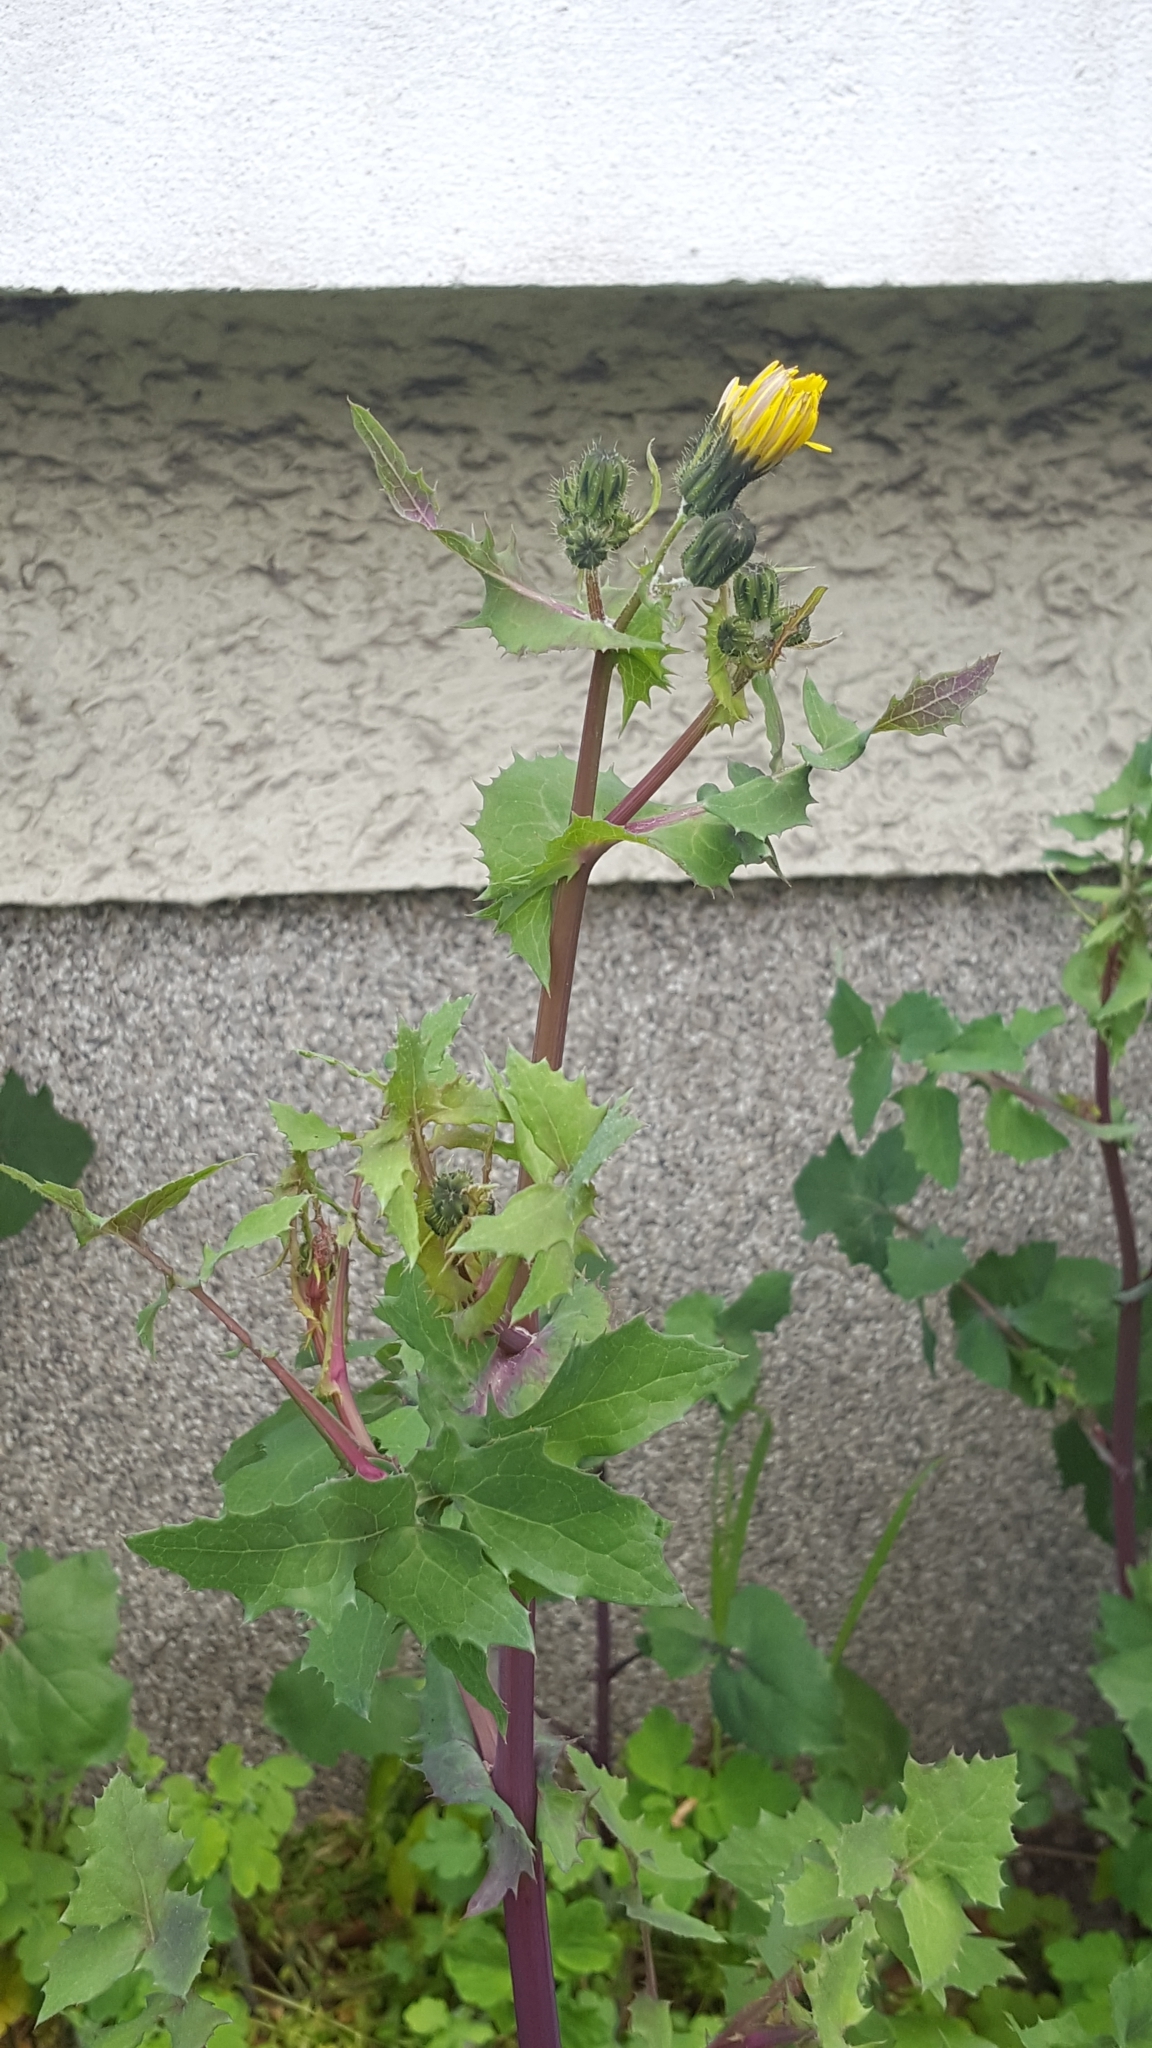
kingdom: Plantae
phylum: Tracheophyta
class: Magnoliopsida
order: Asterales
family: Asteraceae
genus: Sonchus
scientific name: Sonchus oleraceus
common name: Common sowthistle
